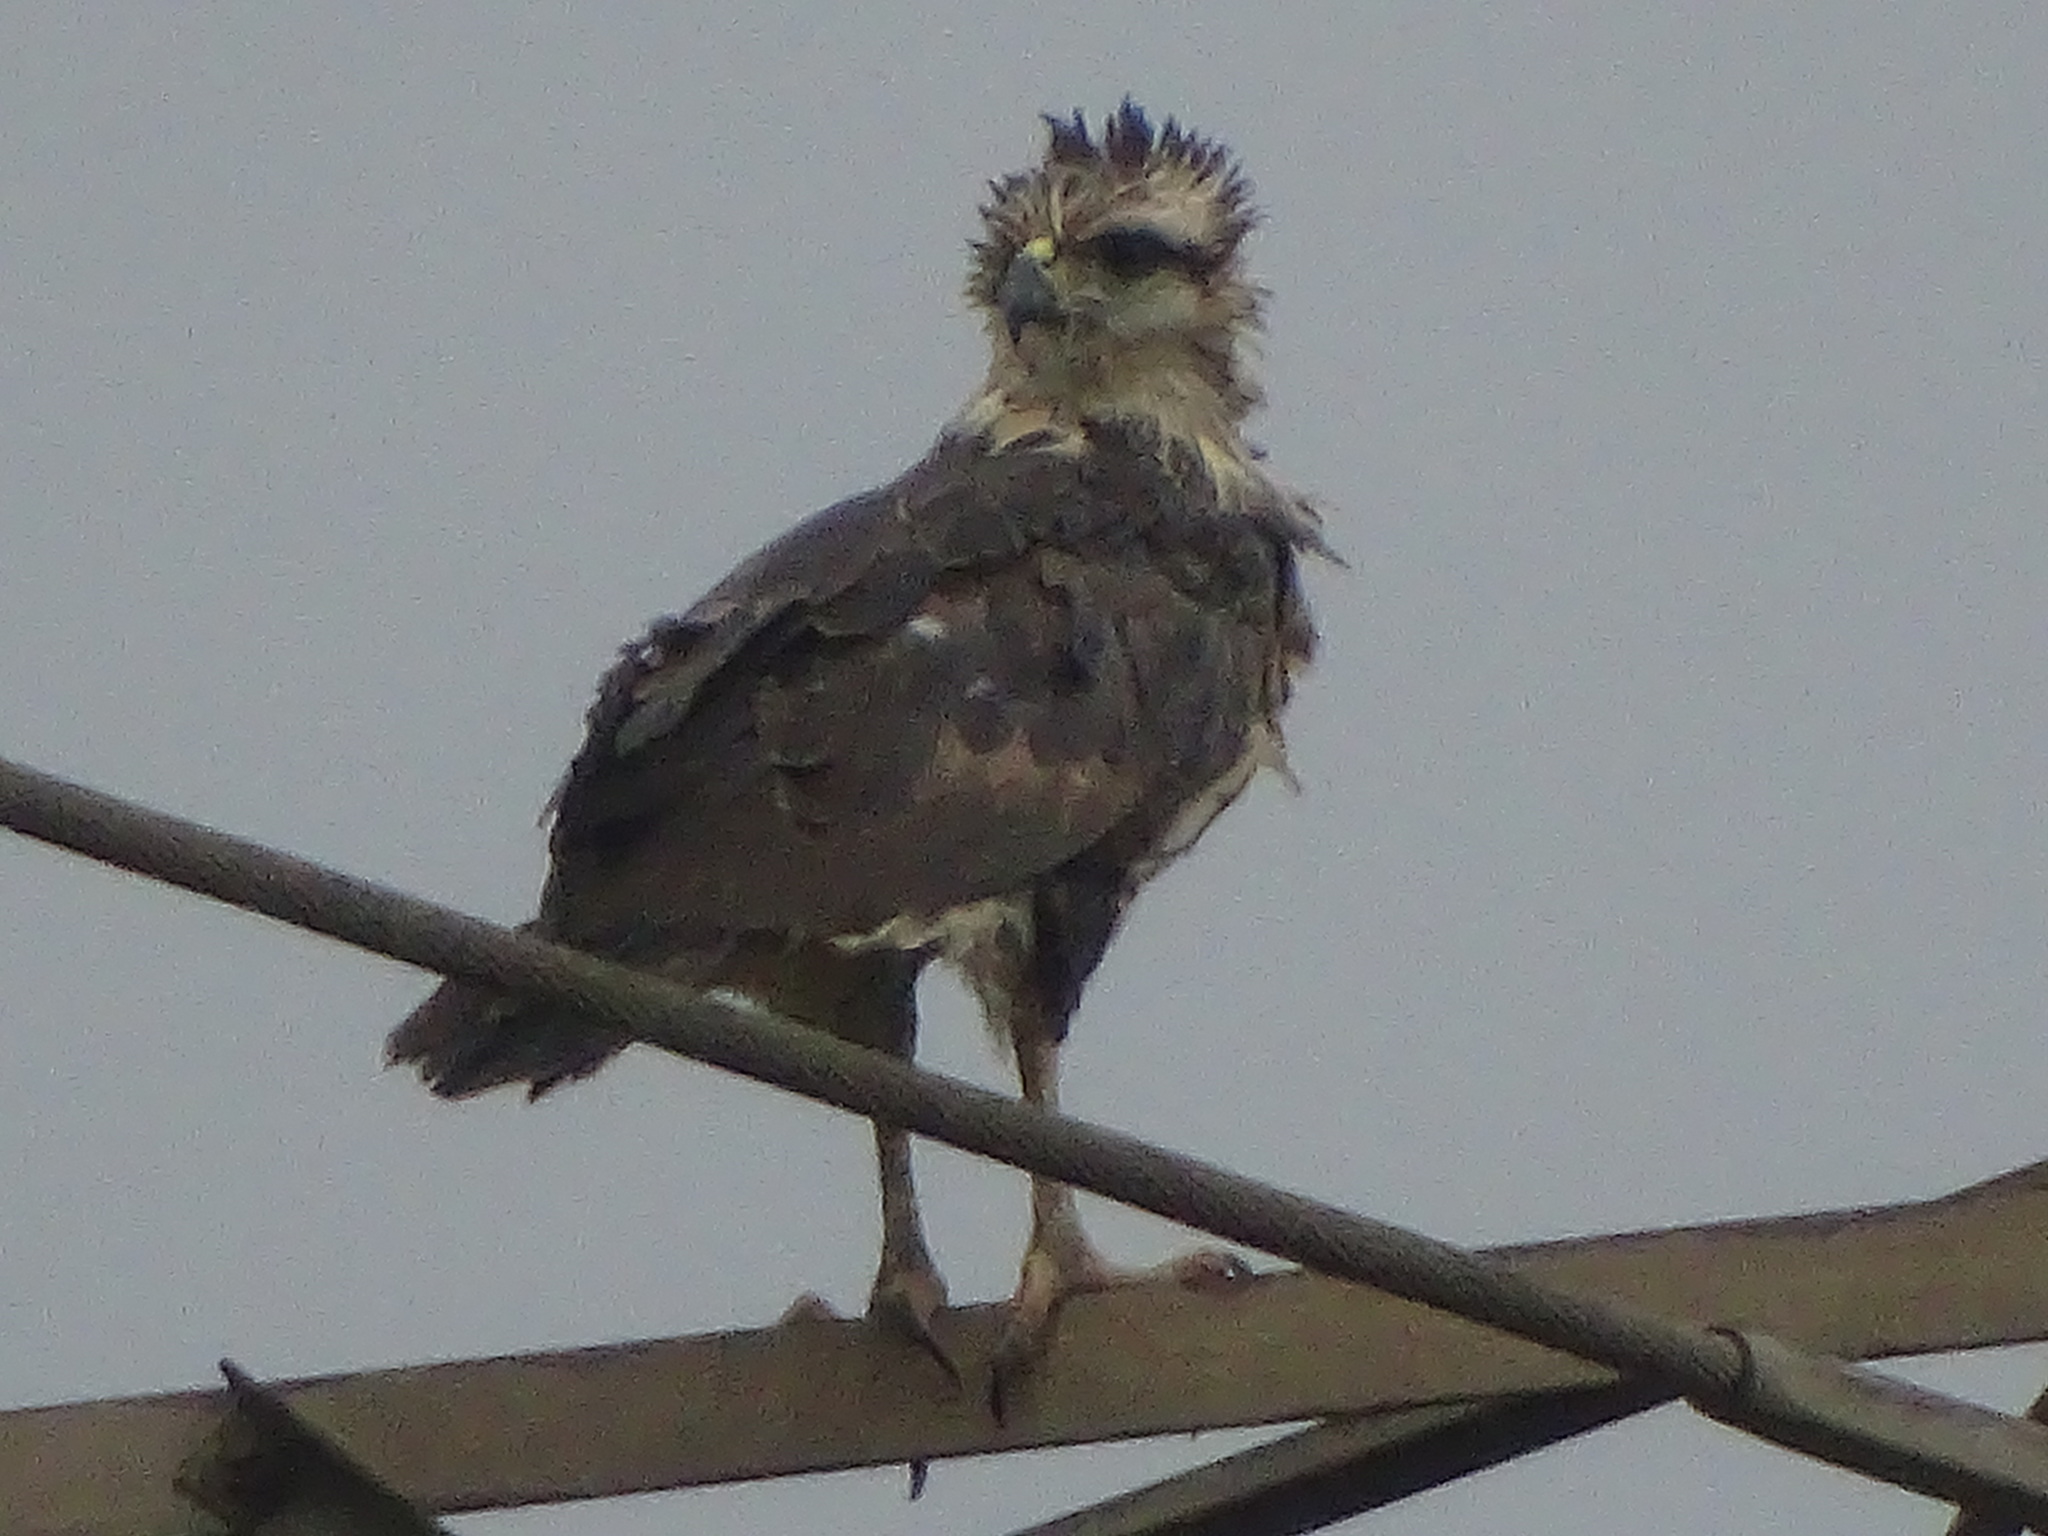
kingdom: Animalia
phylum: Chordata
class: Aves
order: Accipitriformes
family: Accipitridae
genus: Harpyhaliaetus
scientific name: Harpyhaliaetus coronatus
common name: Crowned solitary eagle
